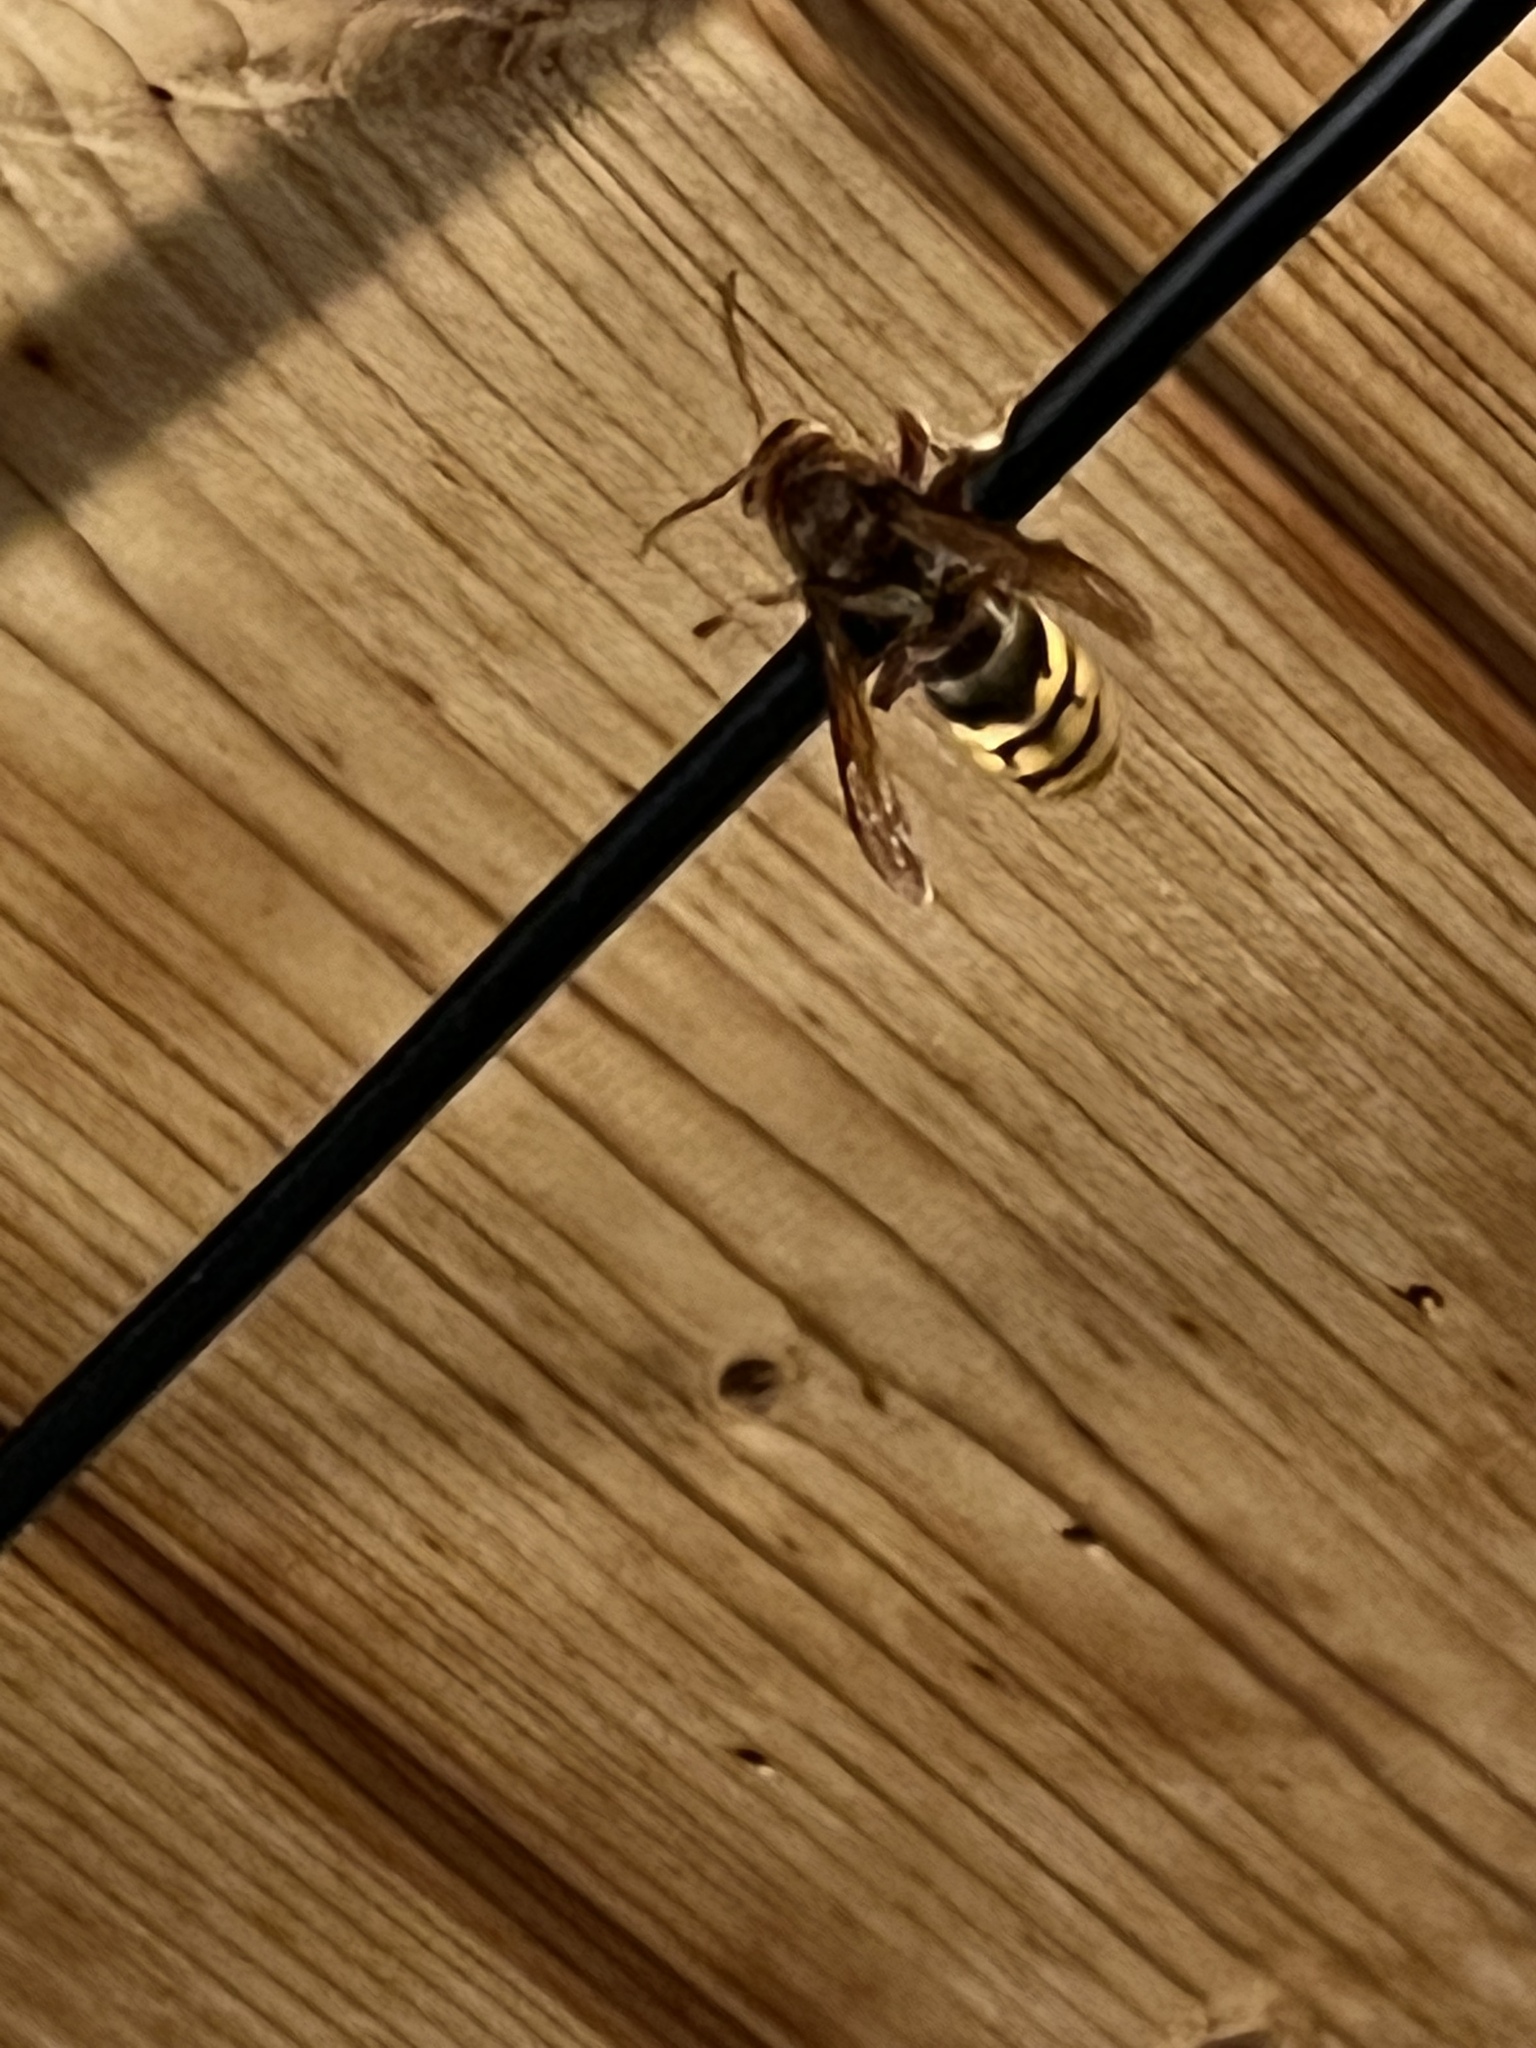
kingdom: Animalia
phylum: Arthropoda
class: Insecta
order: Hymenoptera
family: Vespidae
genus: Vespa
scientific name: Vespa crabro
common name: Hornet
